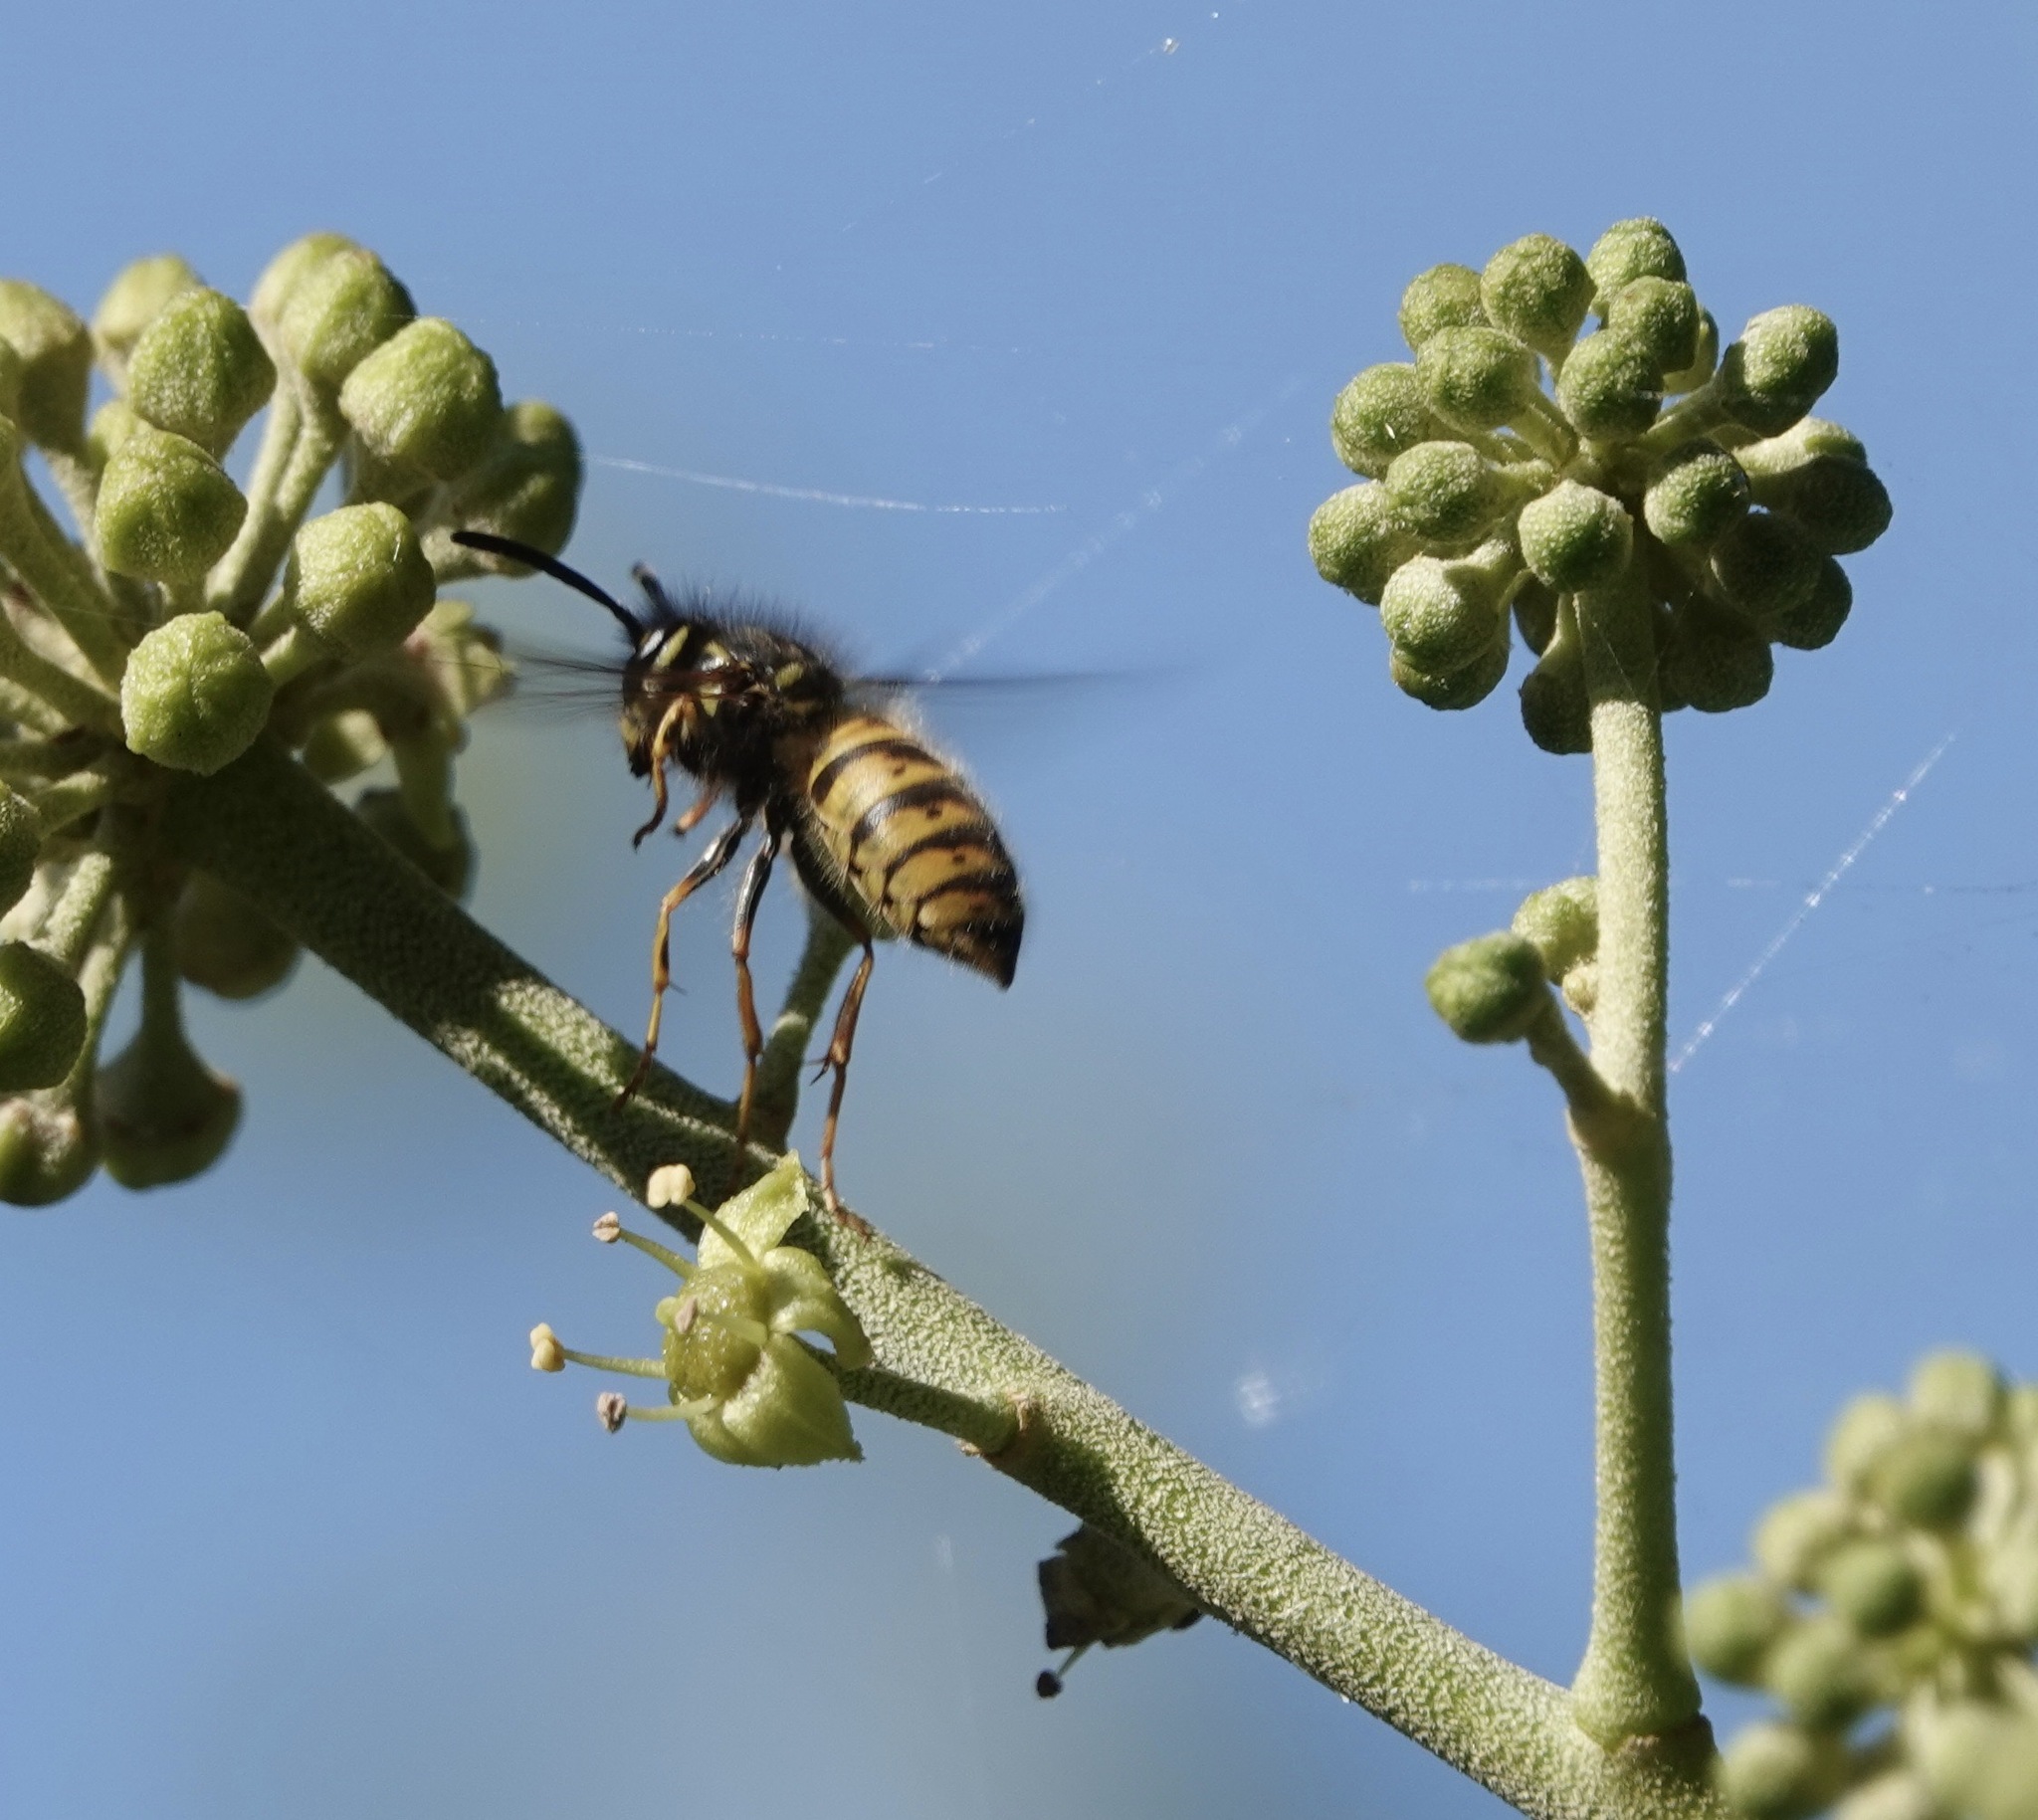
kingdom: Animalia
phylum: Arthropoda
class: Insecta
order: Hymenoptera
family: Vespidae
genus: Vespula
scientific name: Vespula vulgaris
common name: Common wasp
